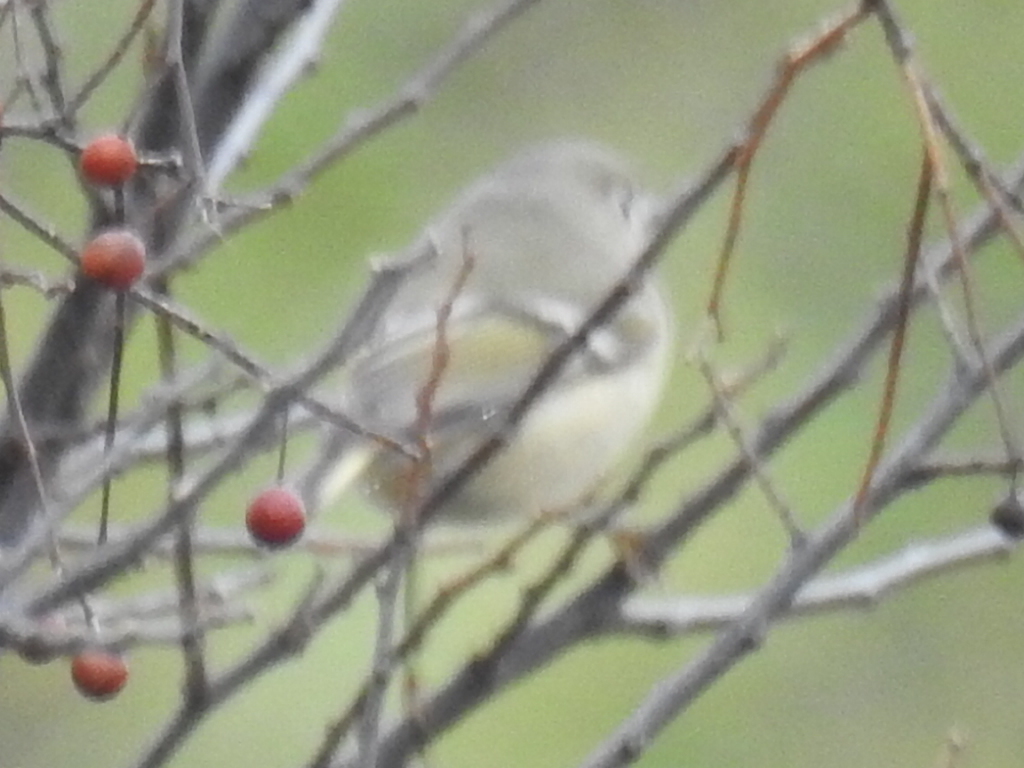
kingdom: Animalia
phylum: Chordata
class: Aves
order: Passeriformes
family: Regulidae
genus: Regulus
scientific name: Regulus calendula
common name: Ruby-crowned kinglet
